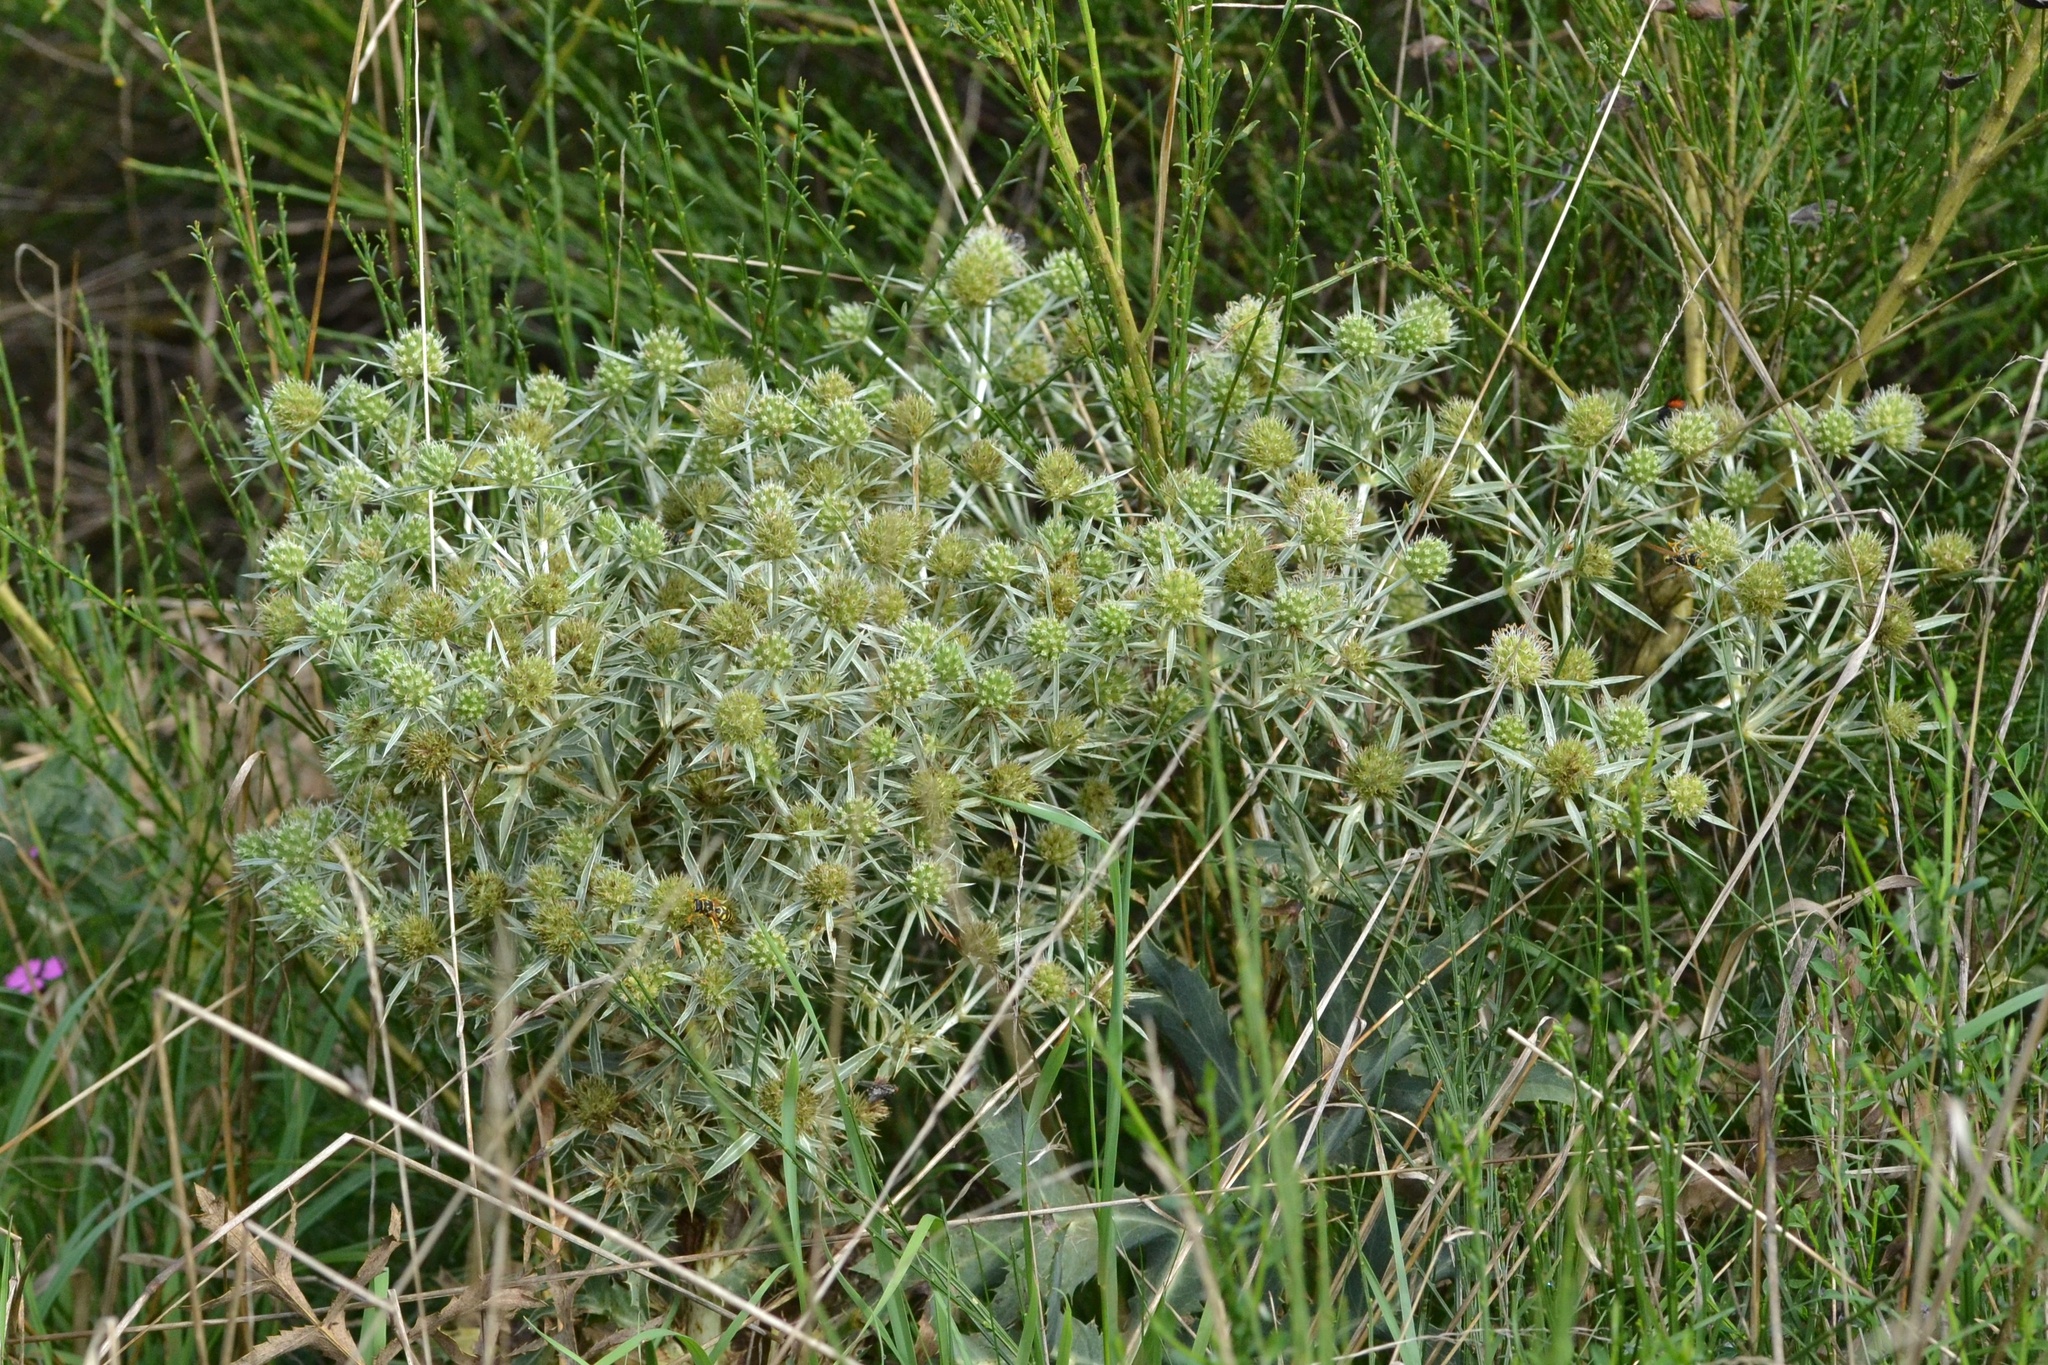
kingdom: Plantae
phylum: Tracheophyta
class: Magnoliopsida
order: Apiales
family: Apiaceae
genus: Eryngium
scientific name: Eryngium campestre
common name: Field eryngo
